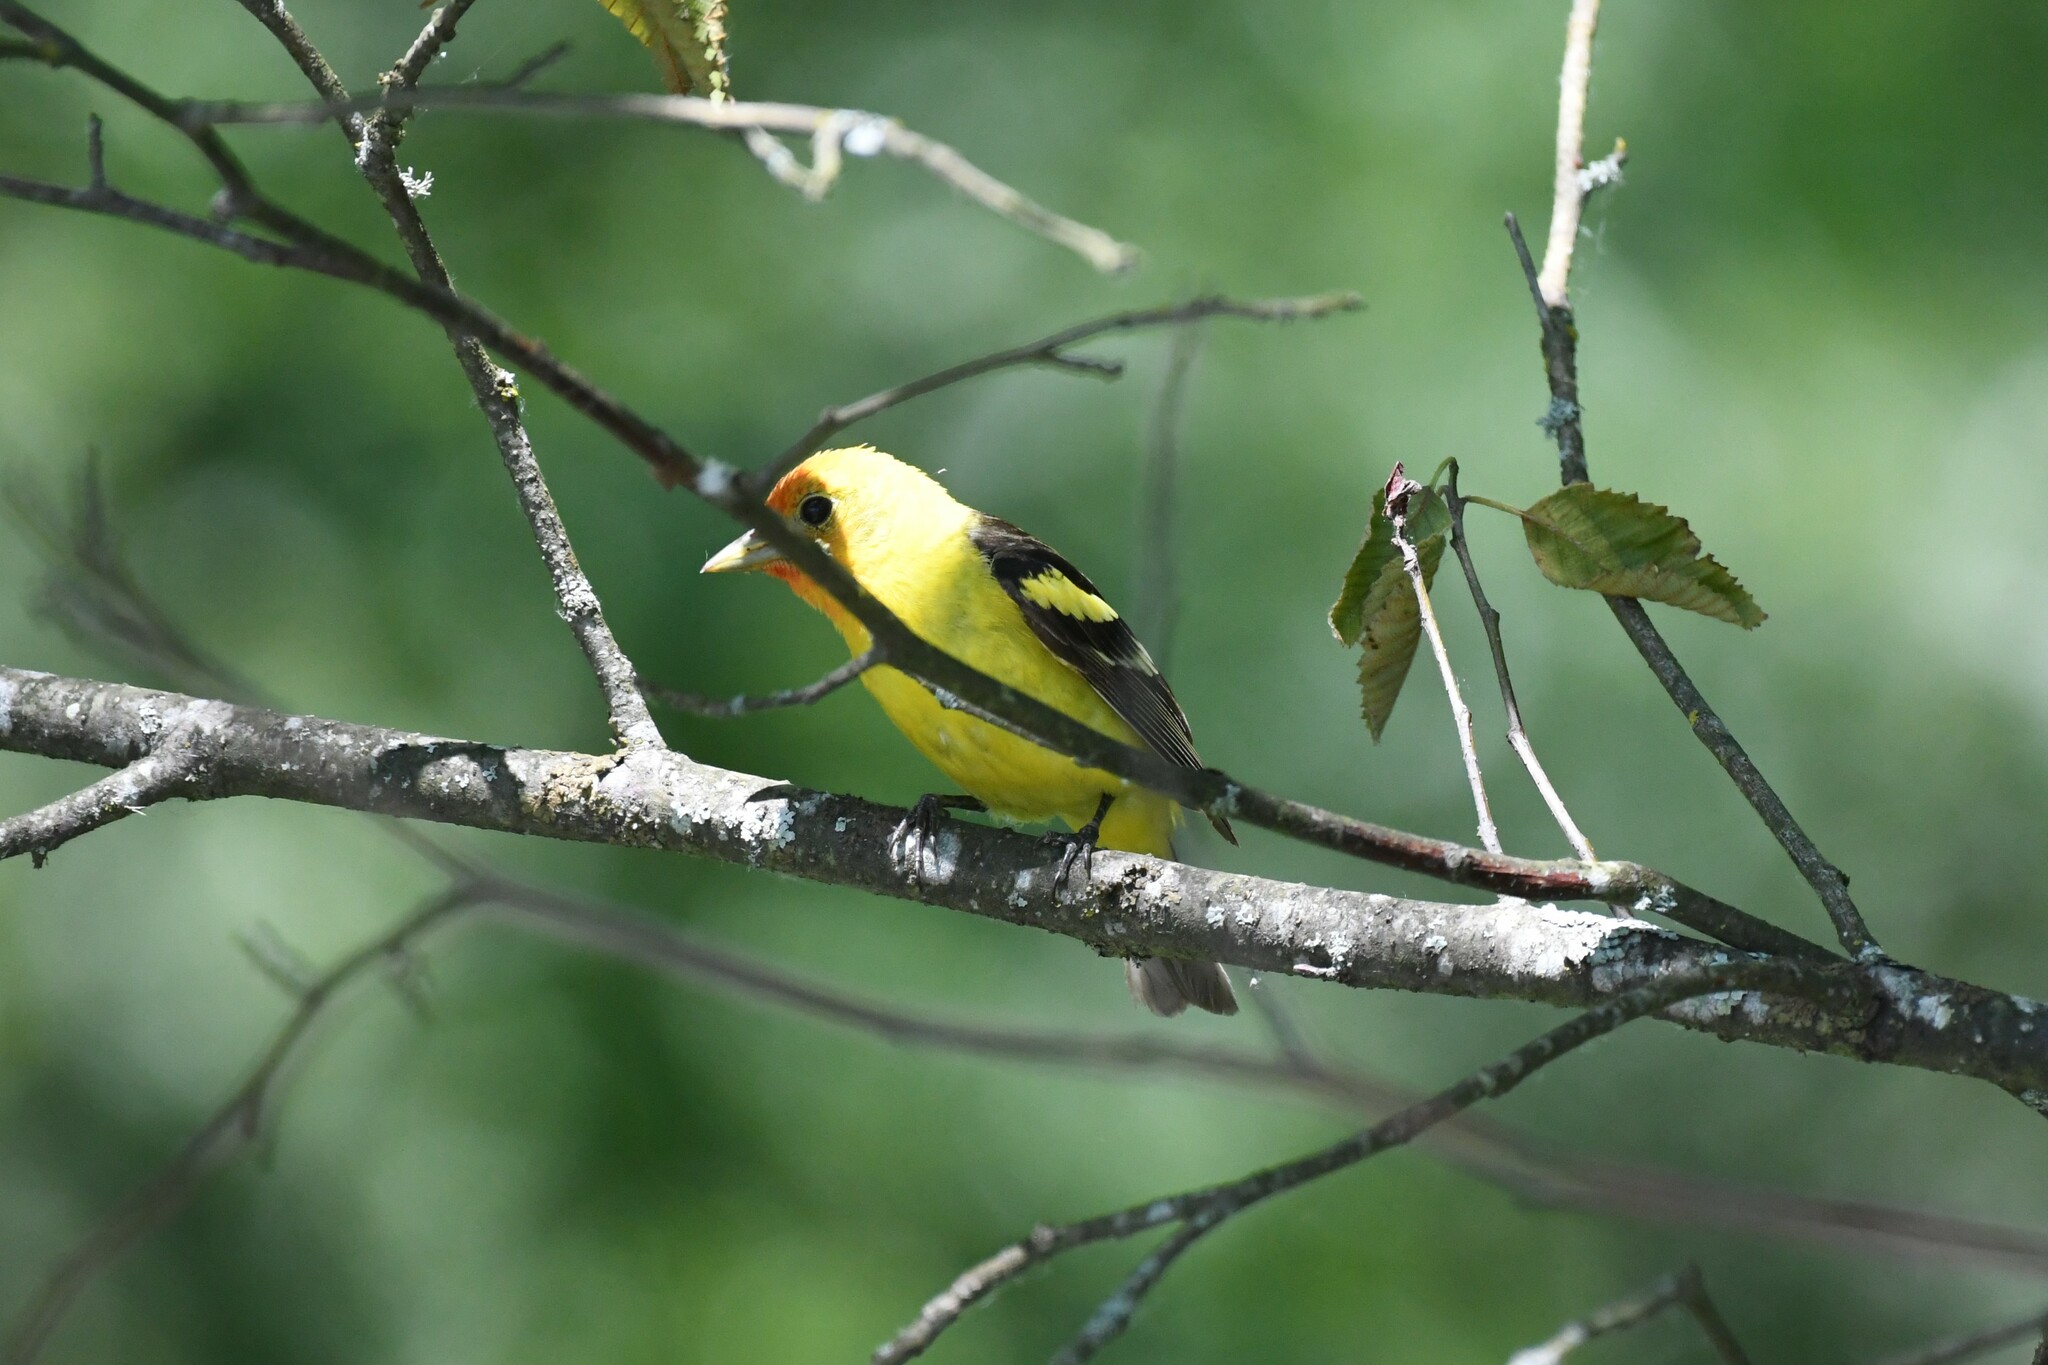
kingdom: Animalia
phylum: Chordata
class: Aves
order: Passeriformes
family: Cardinalidae
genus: Piranga
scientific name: Piranga ludoviciana
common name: Western tanager
